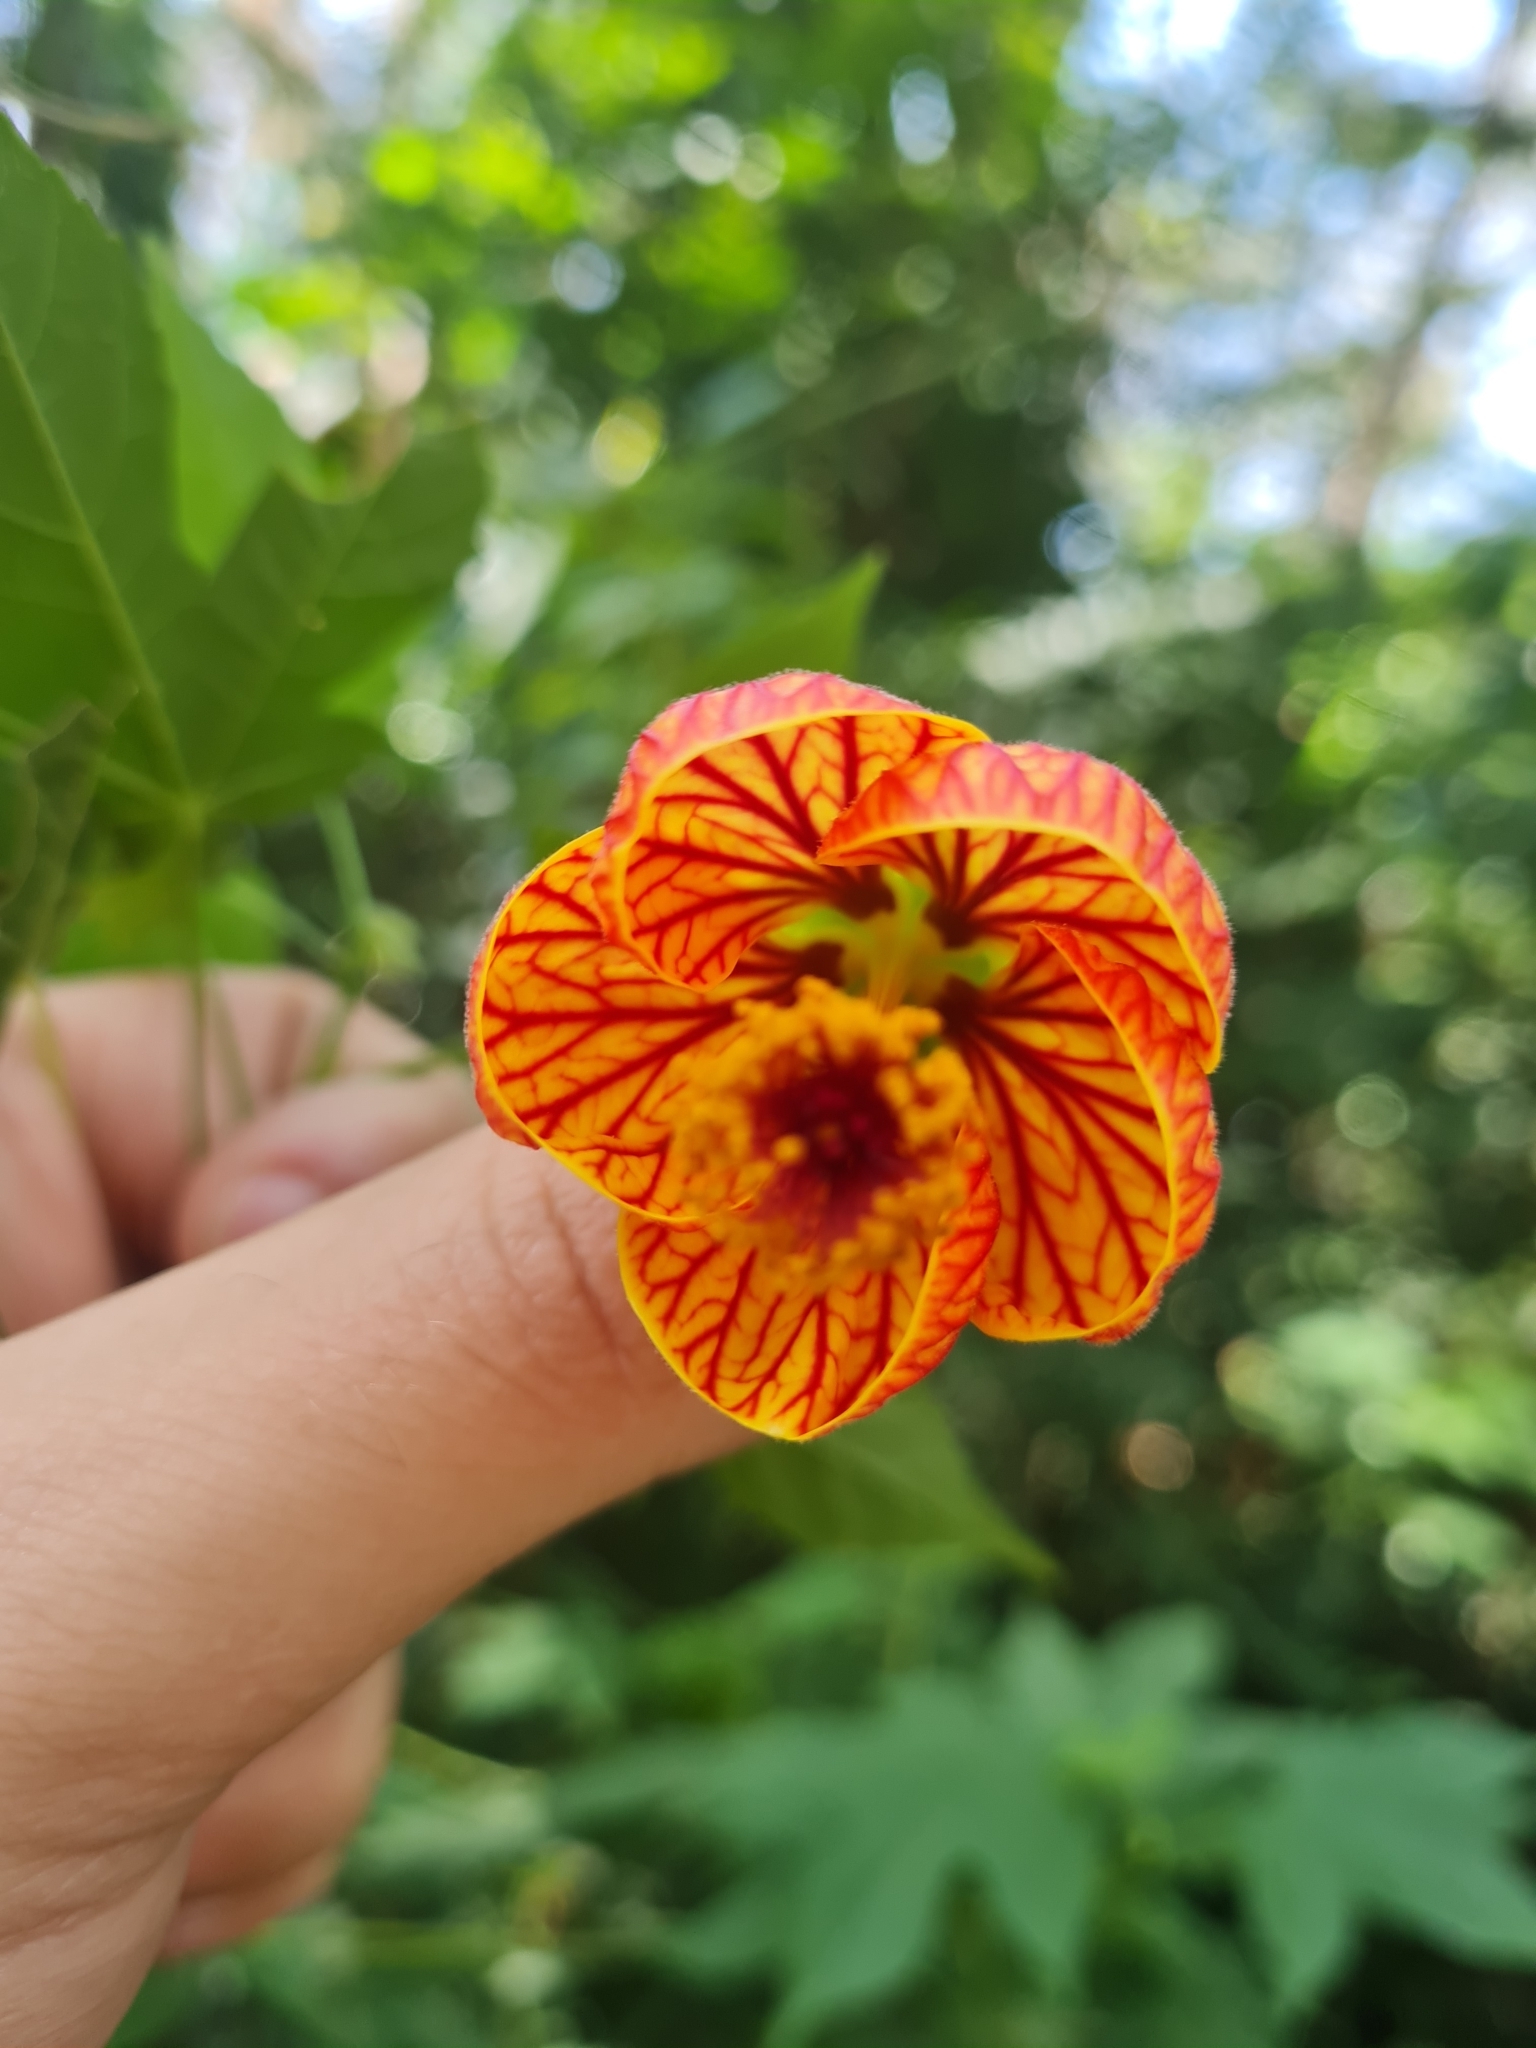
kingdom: Plantae
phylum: Tracheophyta
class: Magnoliopsida
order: Malvales
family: Malvaceae
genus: Callianthe
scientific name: Callianthe picta
